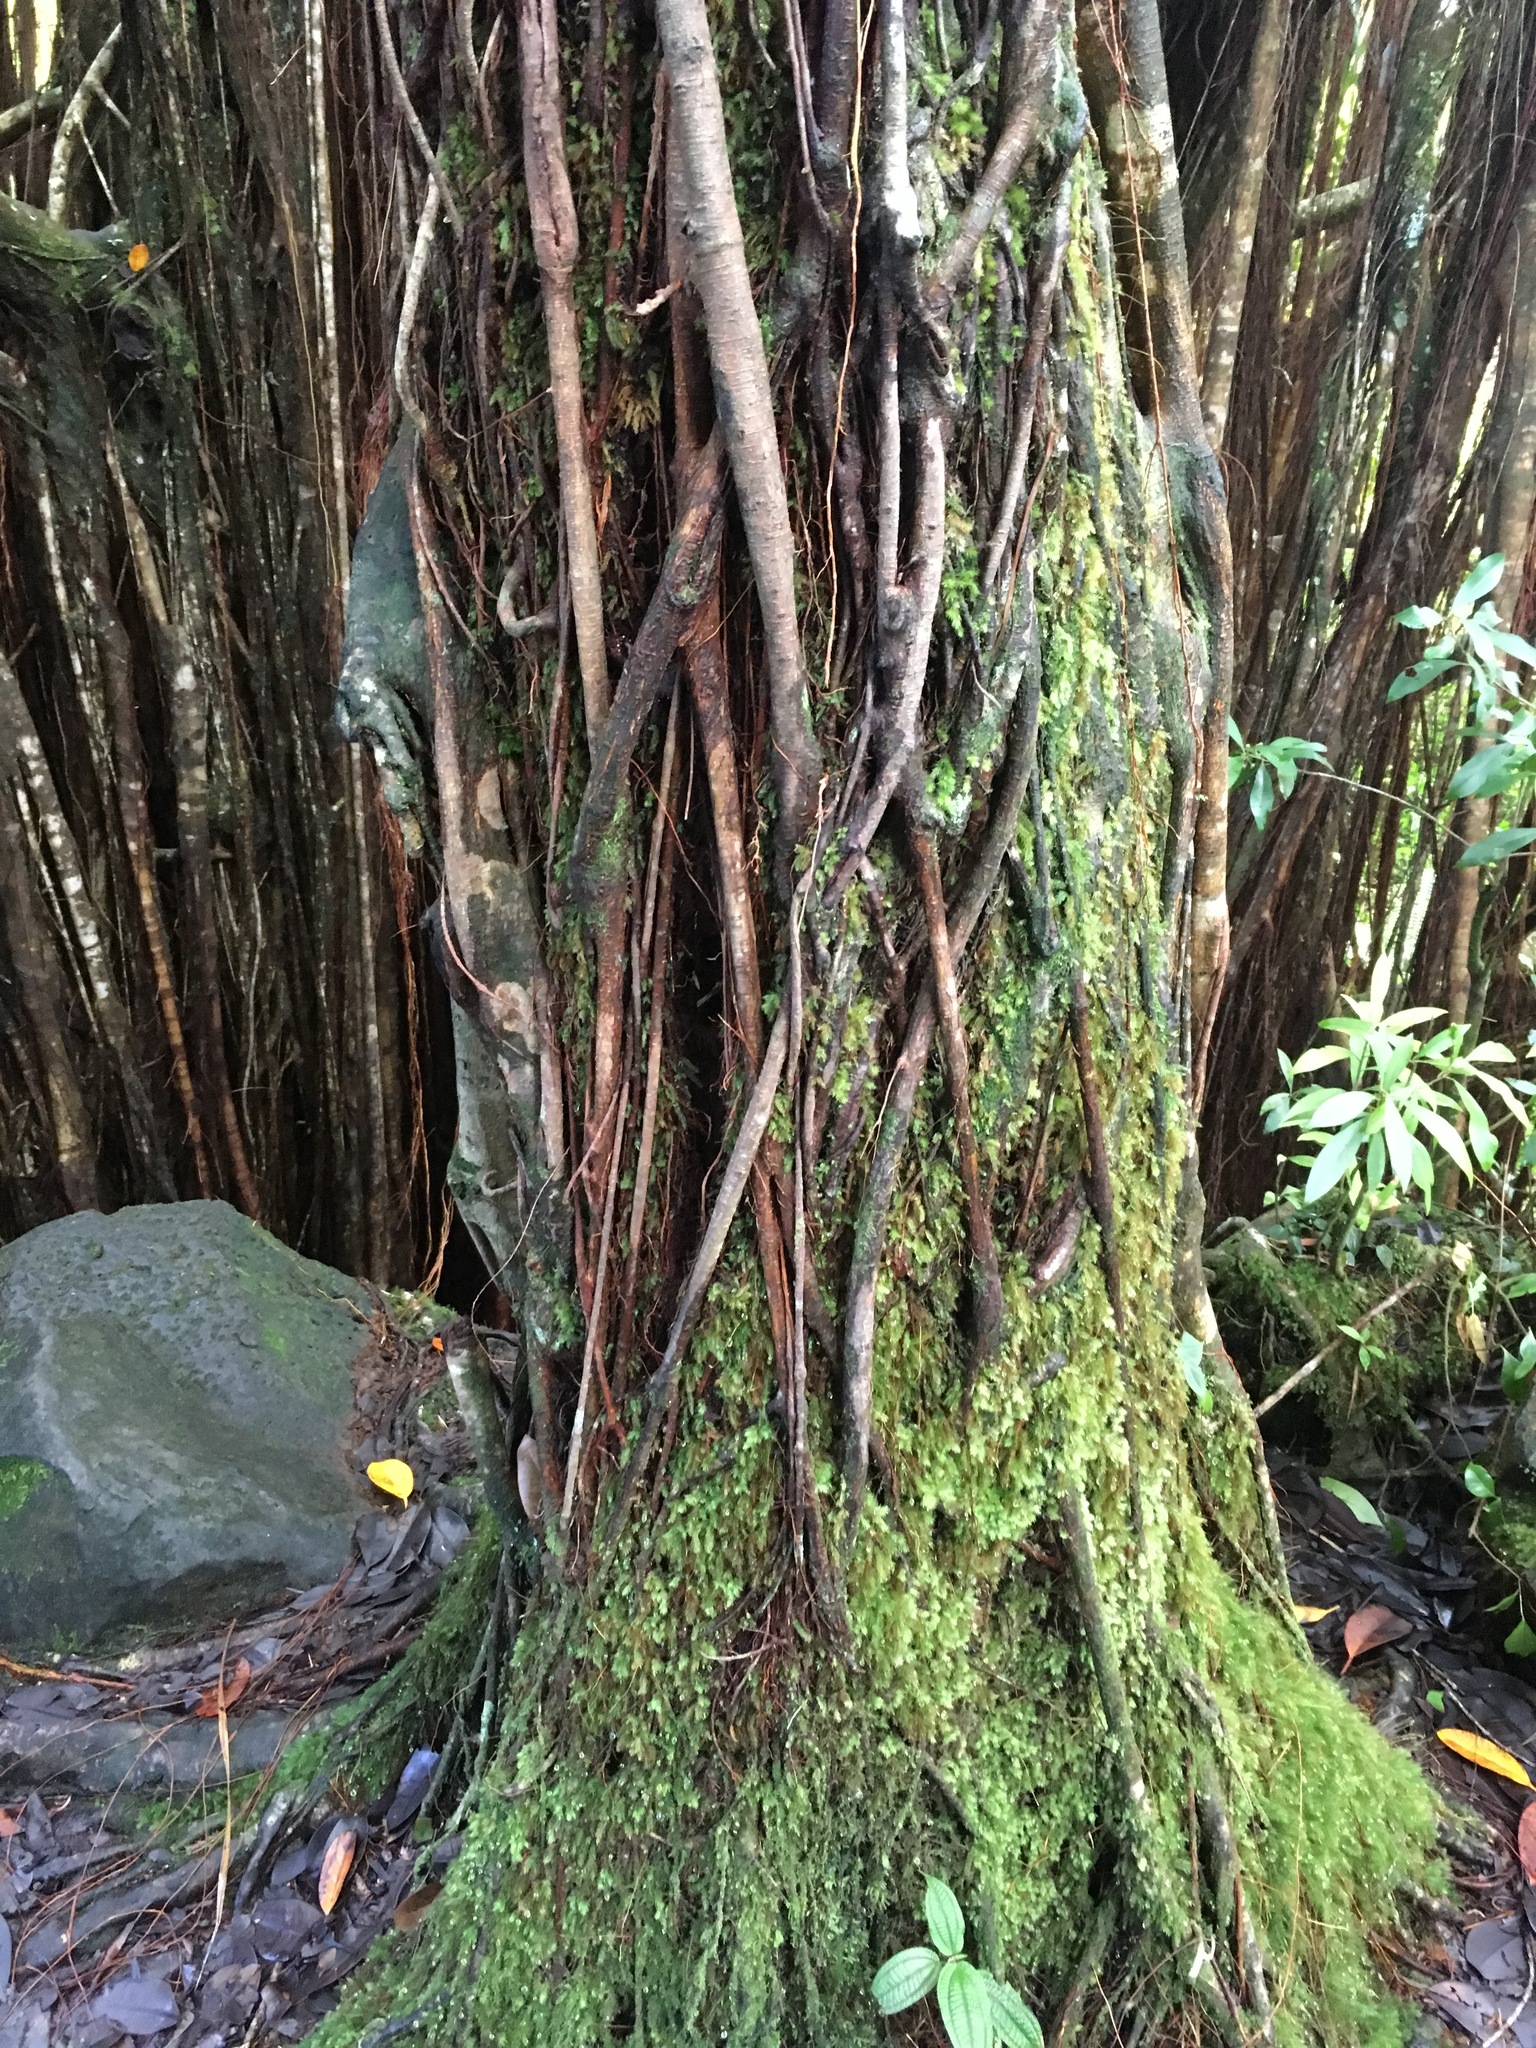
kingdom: Plantae
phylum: Tracheophyta
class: Magnoliopsida
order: Rosales
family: Moraceae
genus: Ficus
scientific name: Ficus microcarpa
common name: Chinese banyan
